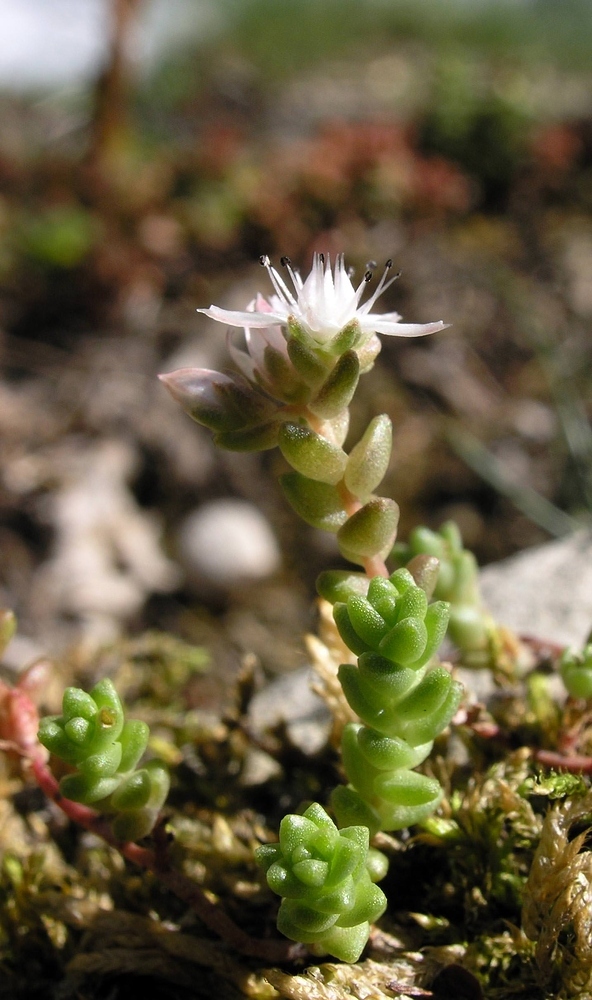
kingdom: Plantae
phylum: Tracheophyta
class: Magnoliopsida
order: Saxifragales
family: Crassulaceae
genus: Sedum
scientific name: Sedum anglicum
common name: English stonecrop
